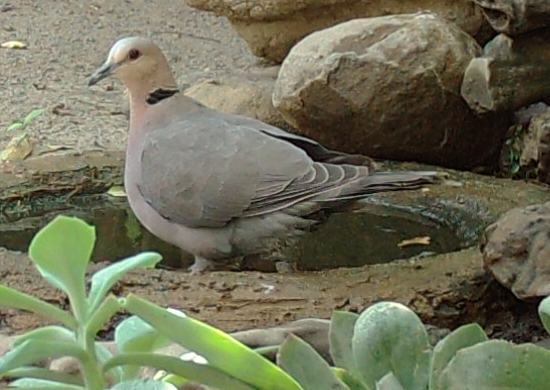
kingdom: Animalia
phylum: Chordata
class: Aves
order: Columbiformes
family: Columbidae
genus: Streptopelia
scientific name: Streptopelia semitorquata
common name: Red-eyed dove
